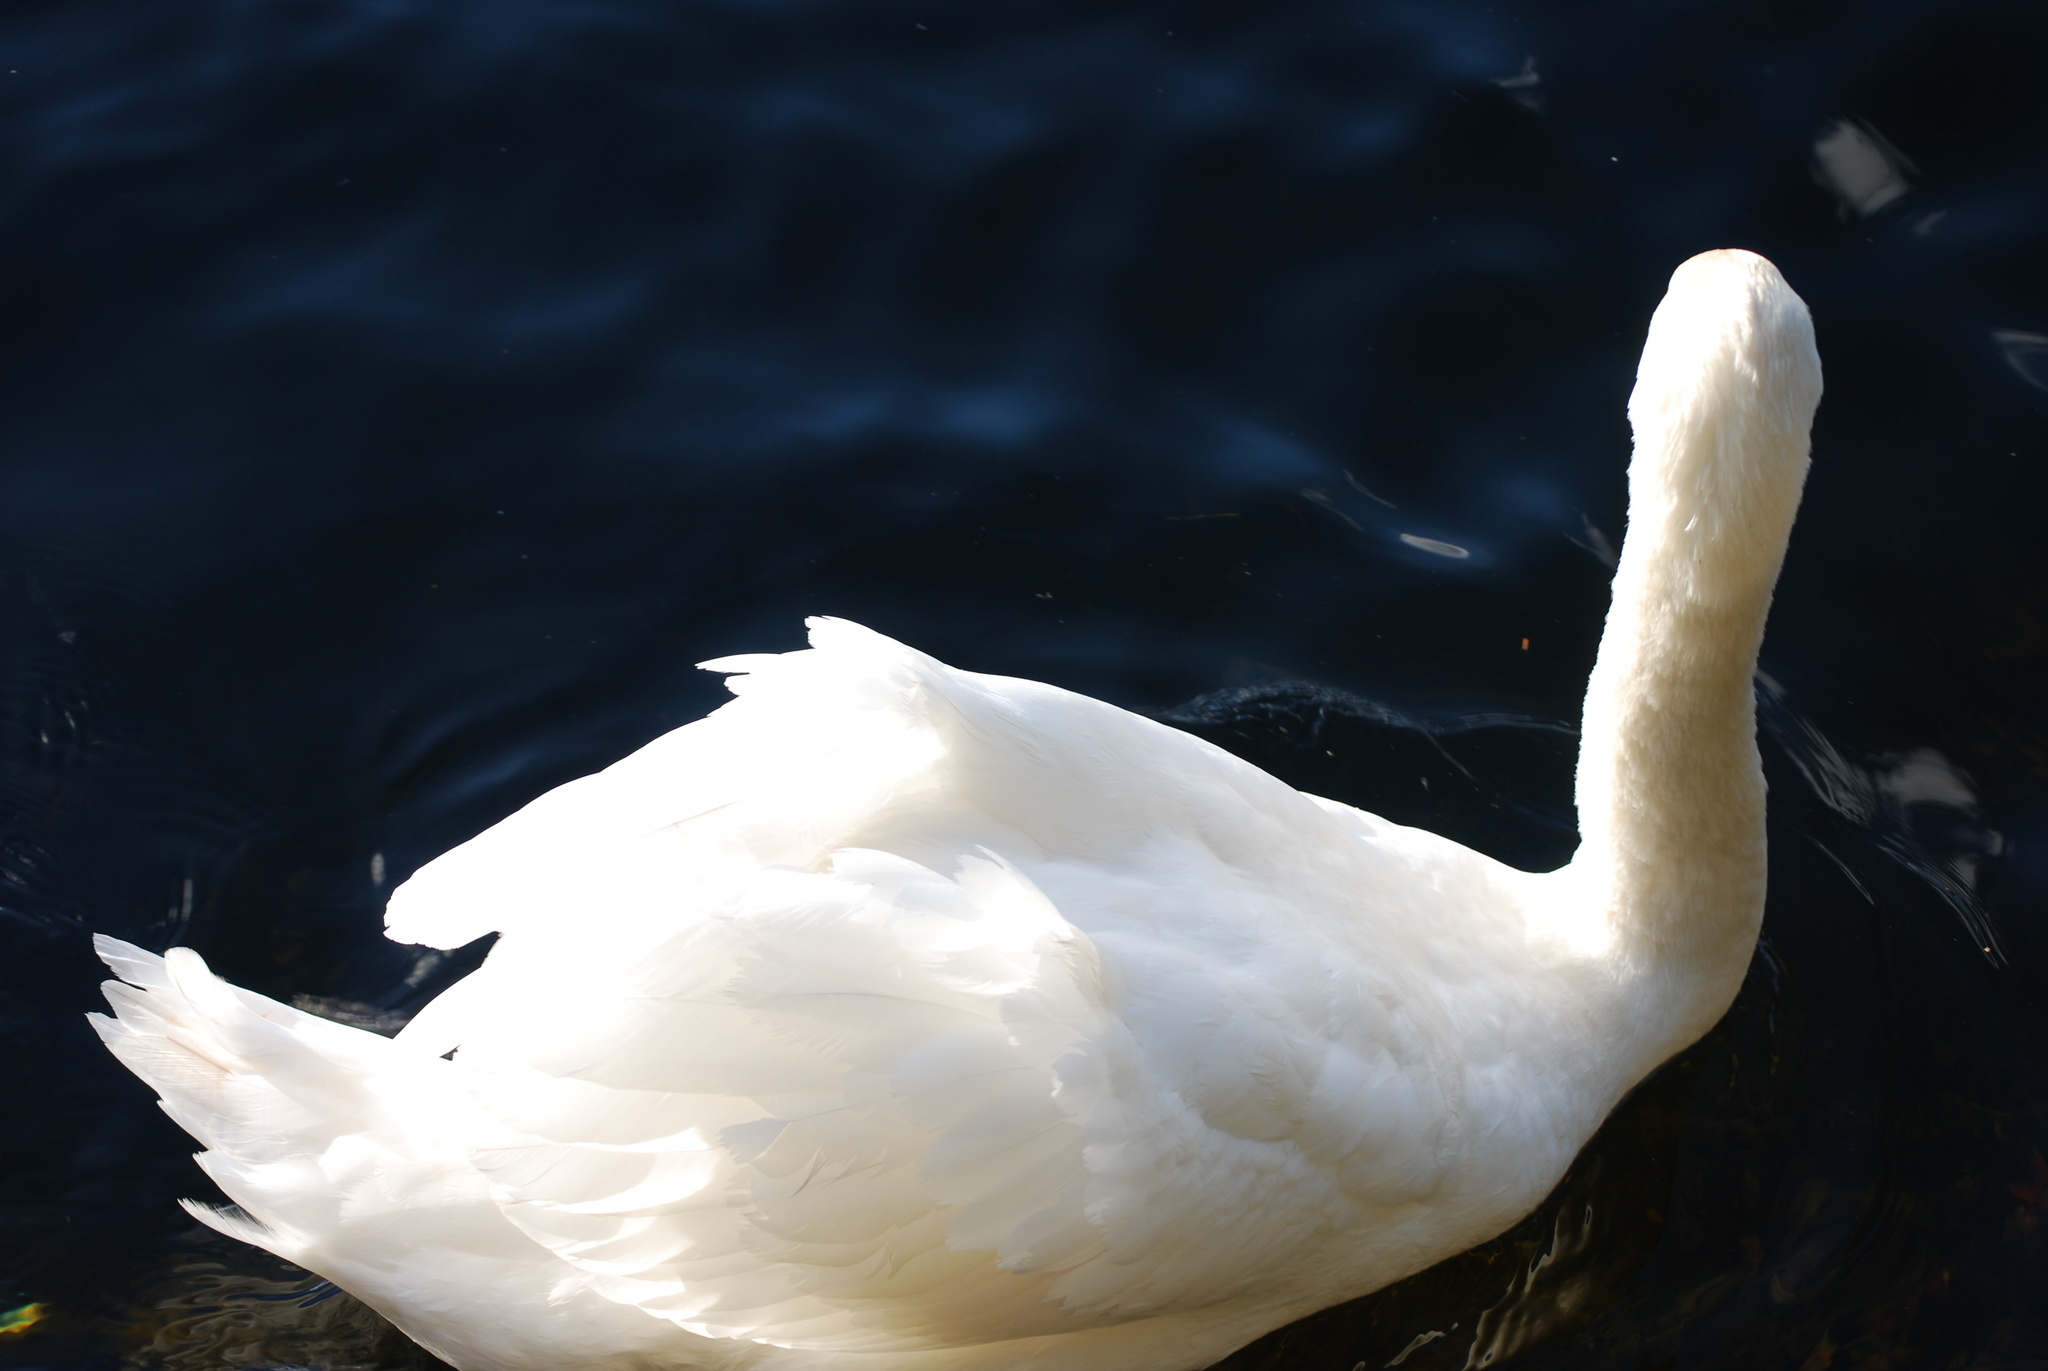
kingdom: Animalia
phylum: Chordata
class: Aves
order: Anseriformes
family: Anatidae
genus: Cygnus
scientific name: Cygnus olor
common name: Mute swan
